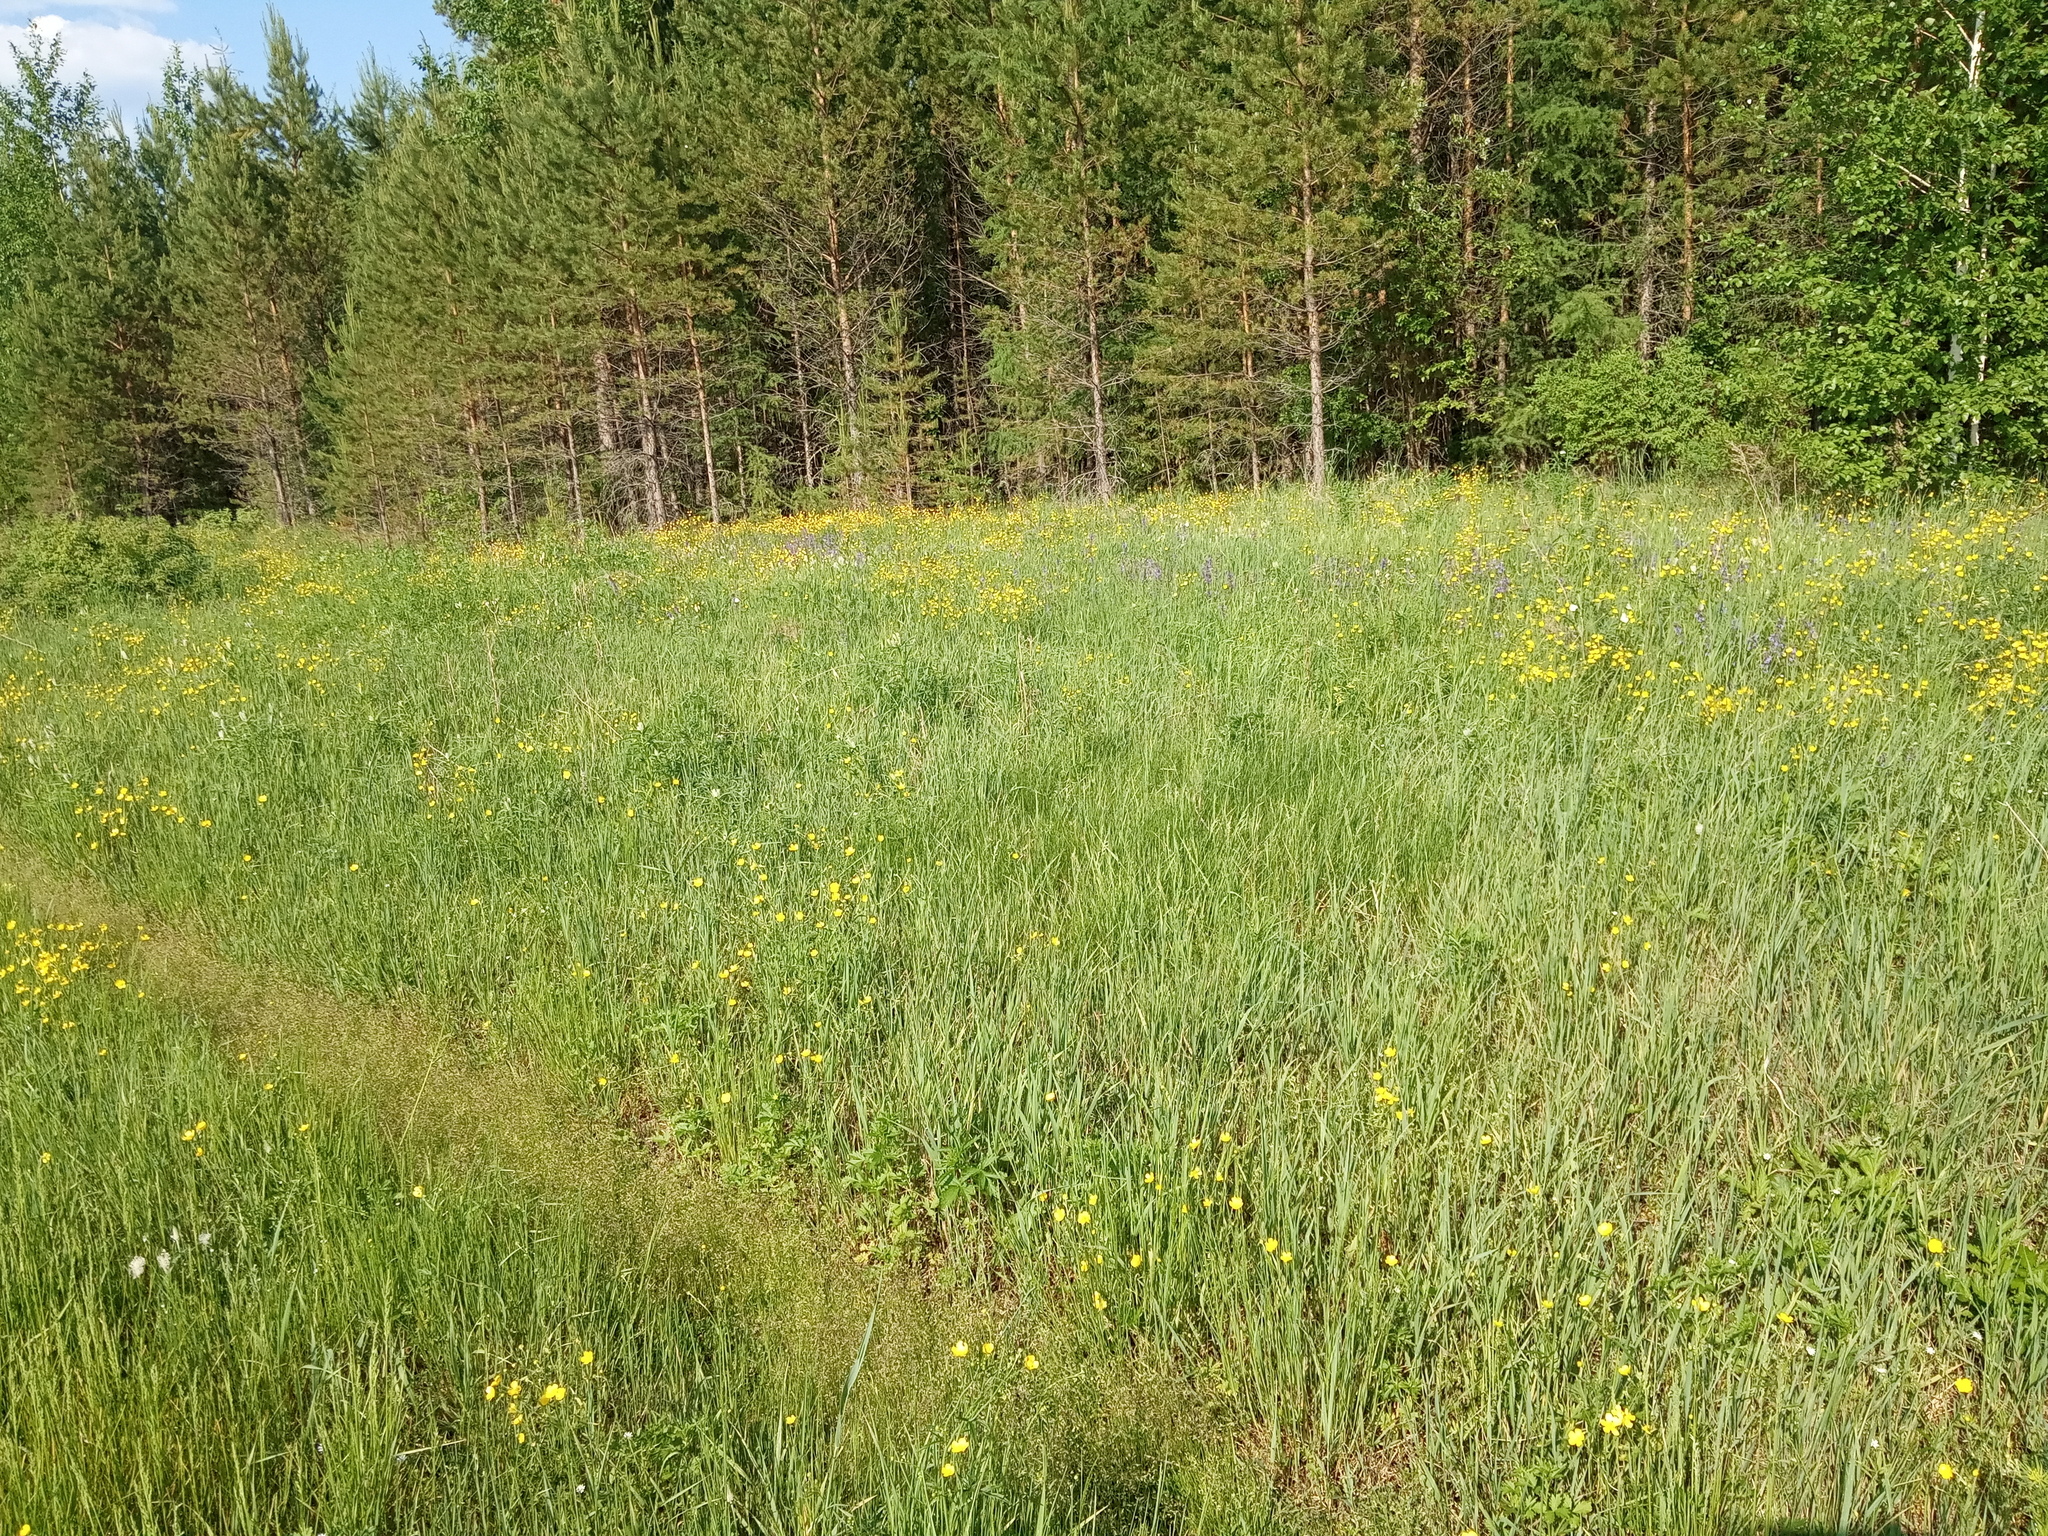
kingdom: Plantae
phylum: Tracheophyta
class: Pinopsida
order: Pinales
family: Pinaceae
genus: Pinus
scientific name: Pinus sylvestris
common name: Scots pine
